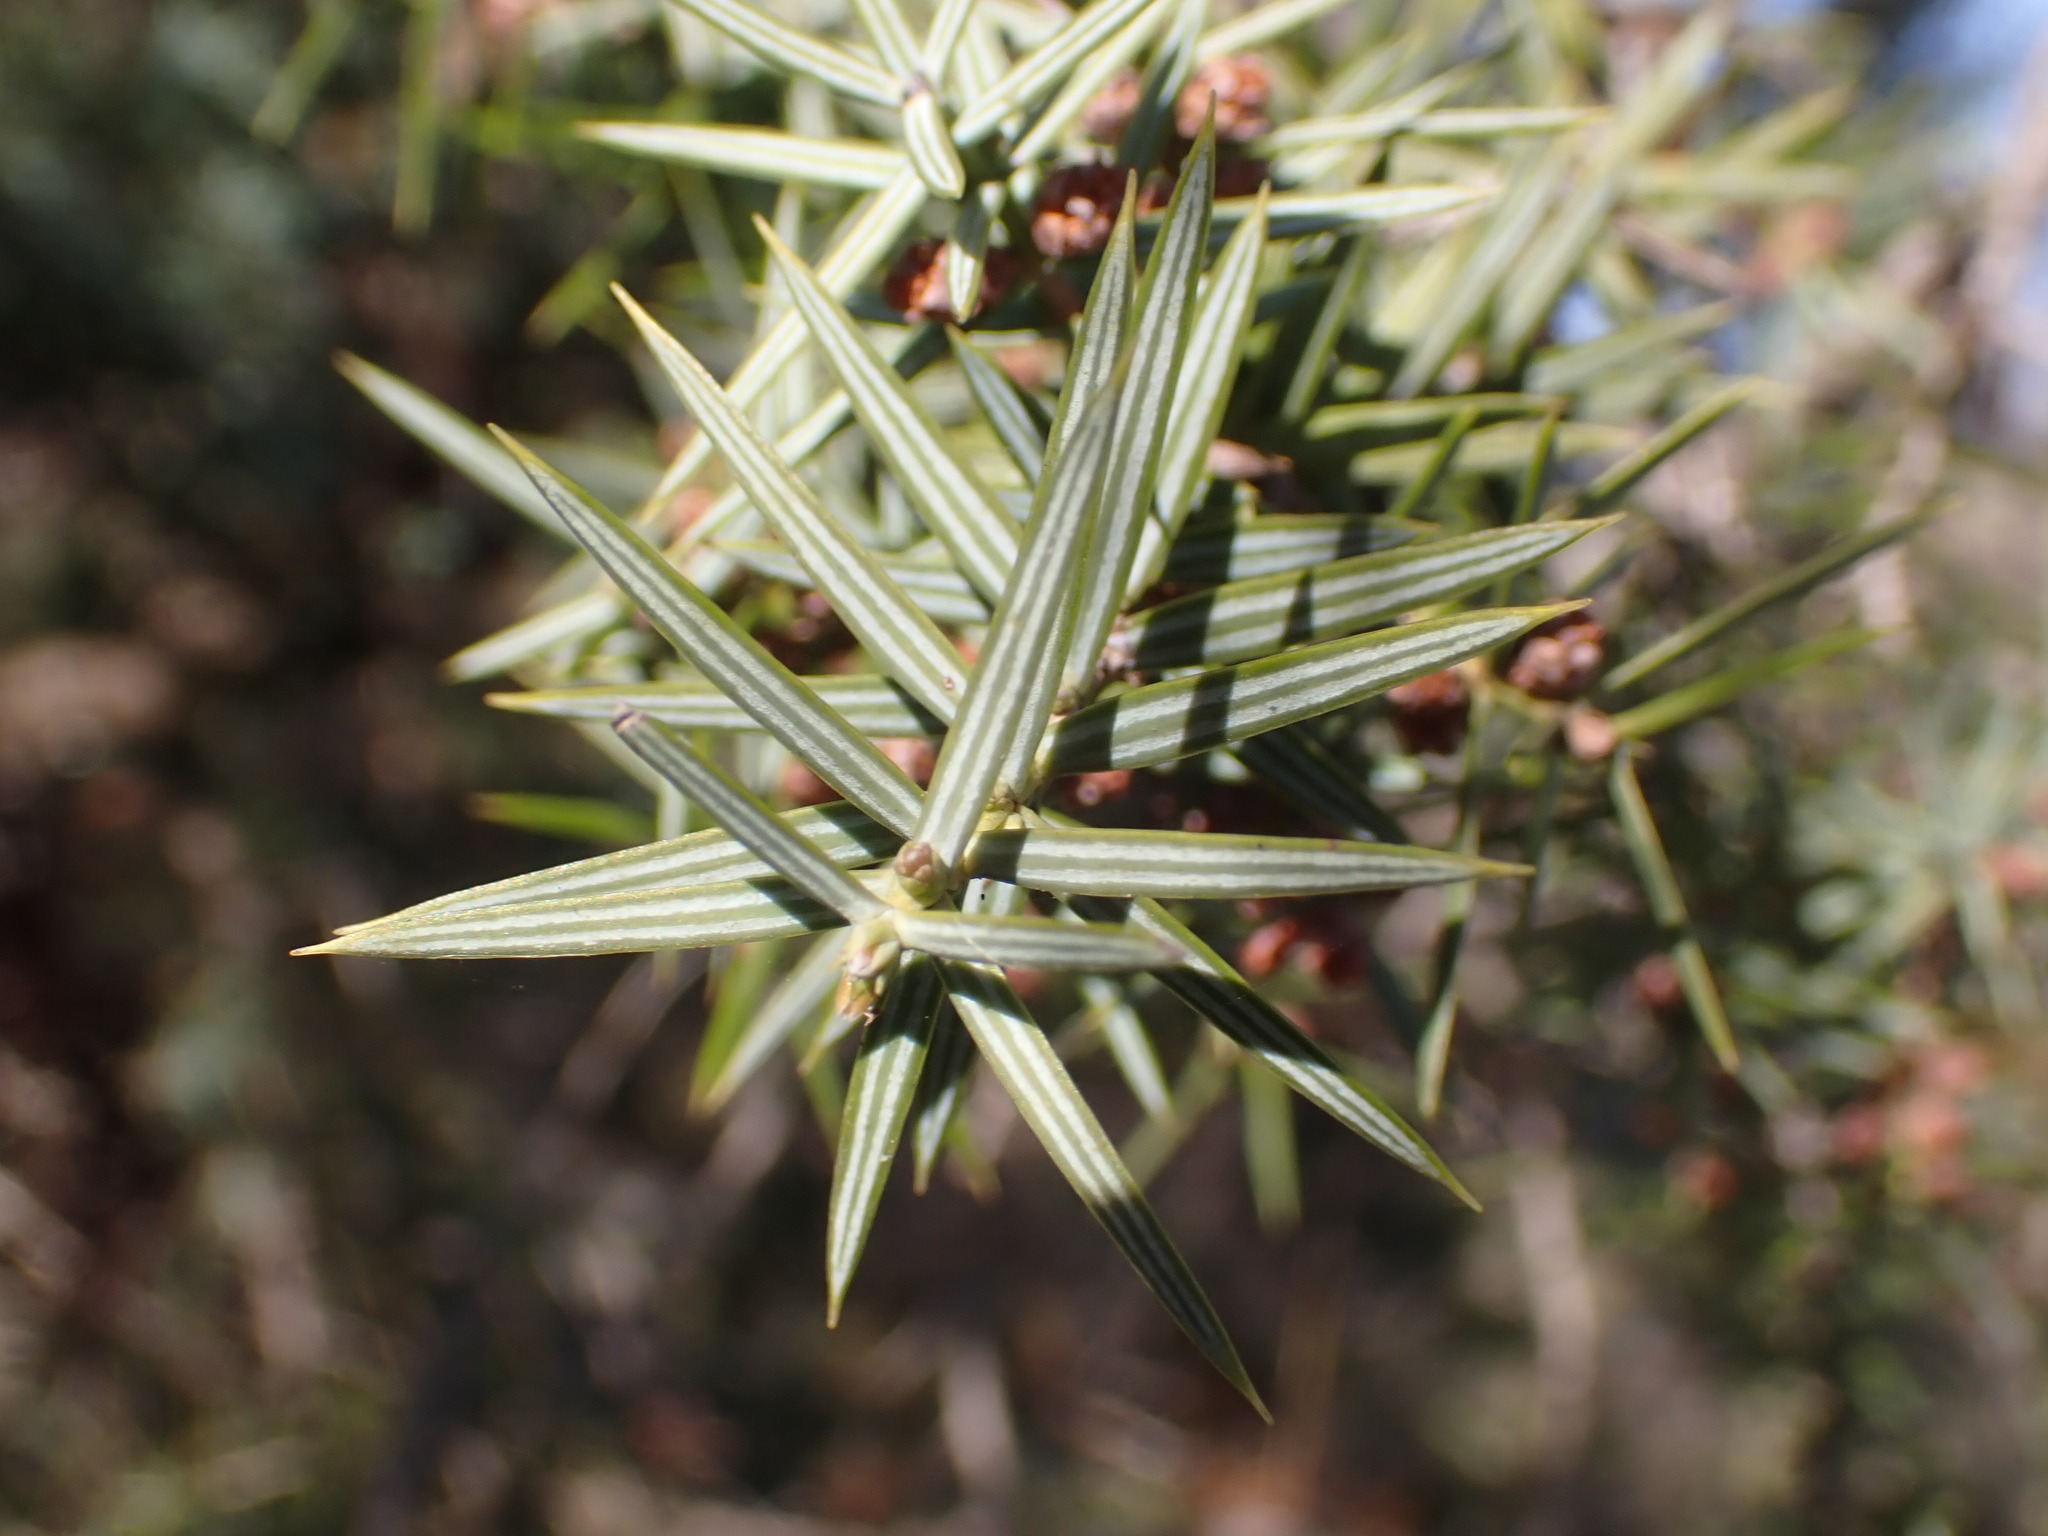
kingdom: Plantae
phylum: Tracheophyta
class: Pinopsida
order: Pinales
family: Cupressaceae
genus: Juniperus
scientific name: Juniperus oxycedrus
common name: Prickly juniper
